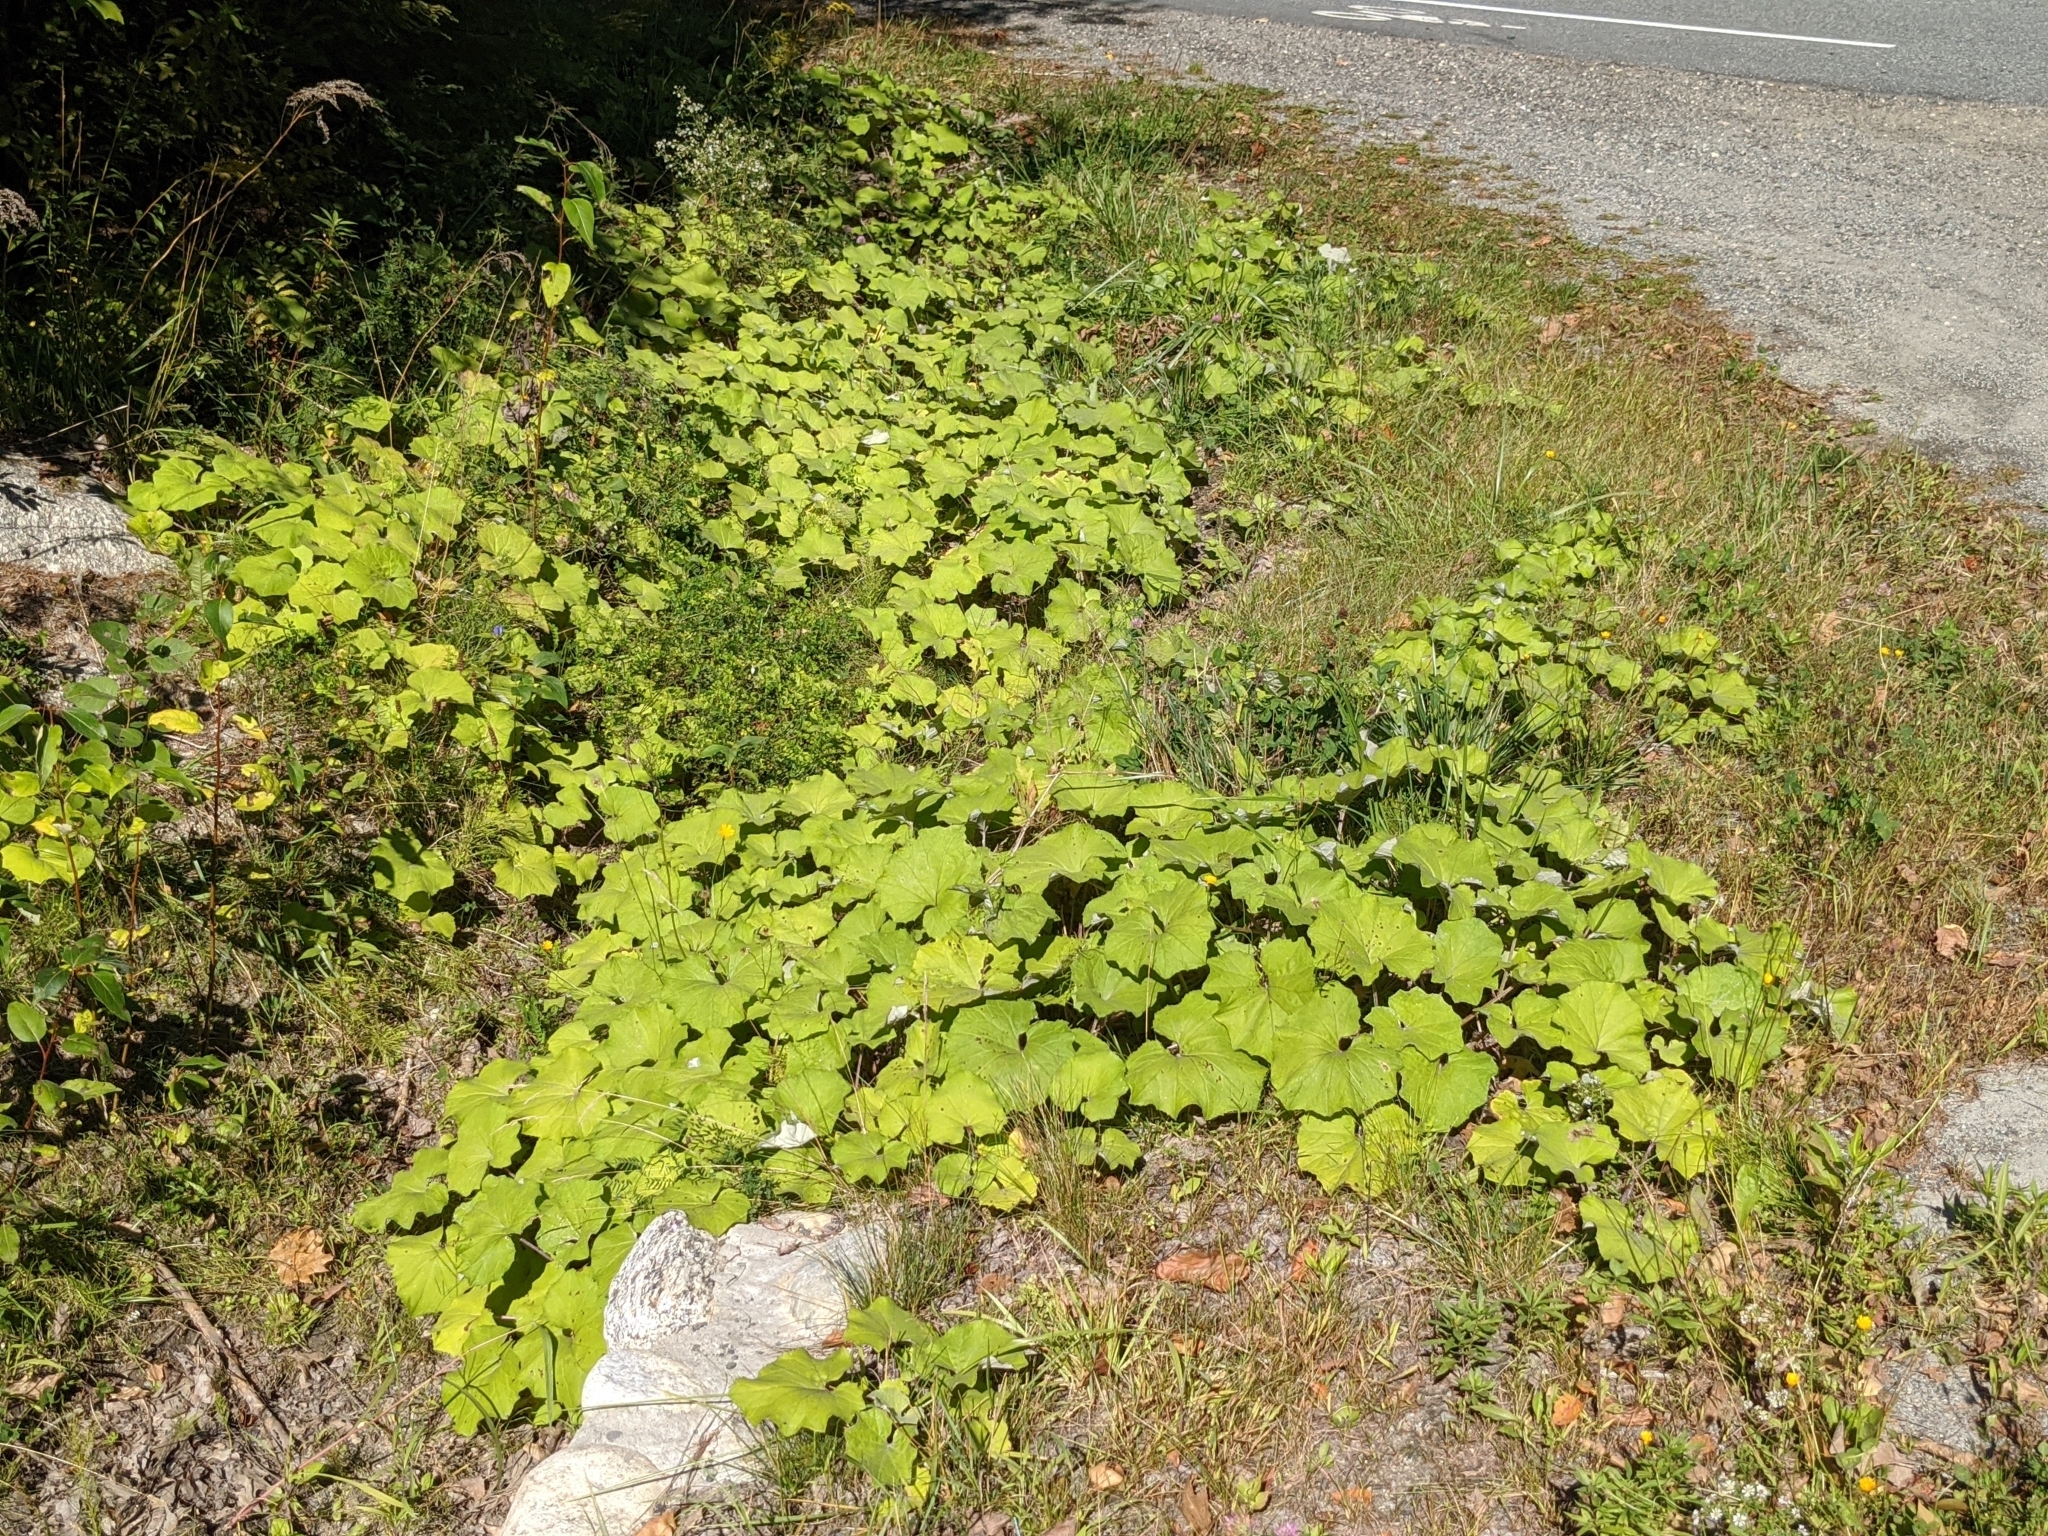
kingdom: Plantae
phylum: Tracheophyta
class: Magnoliopsida
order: Asterales
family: Asteraceae
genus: Tussilago
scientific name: Tussilago farfara
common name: Coltsfoot
